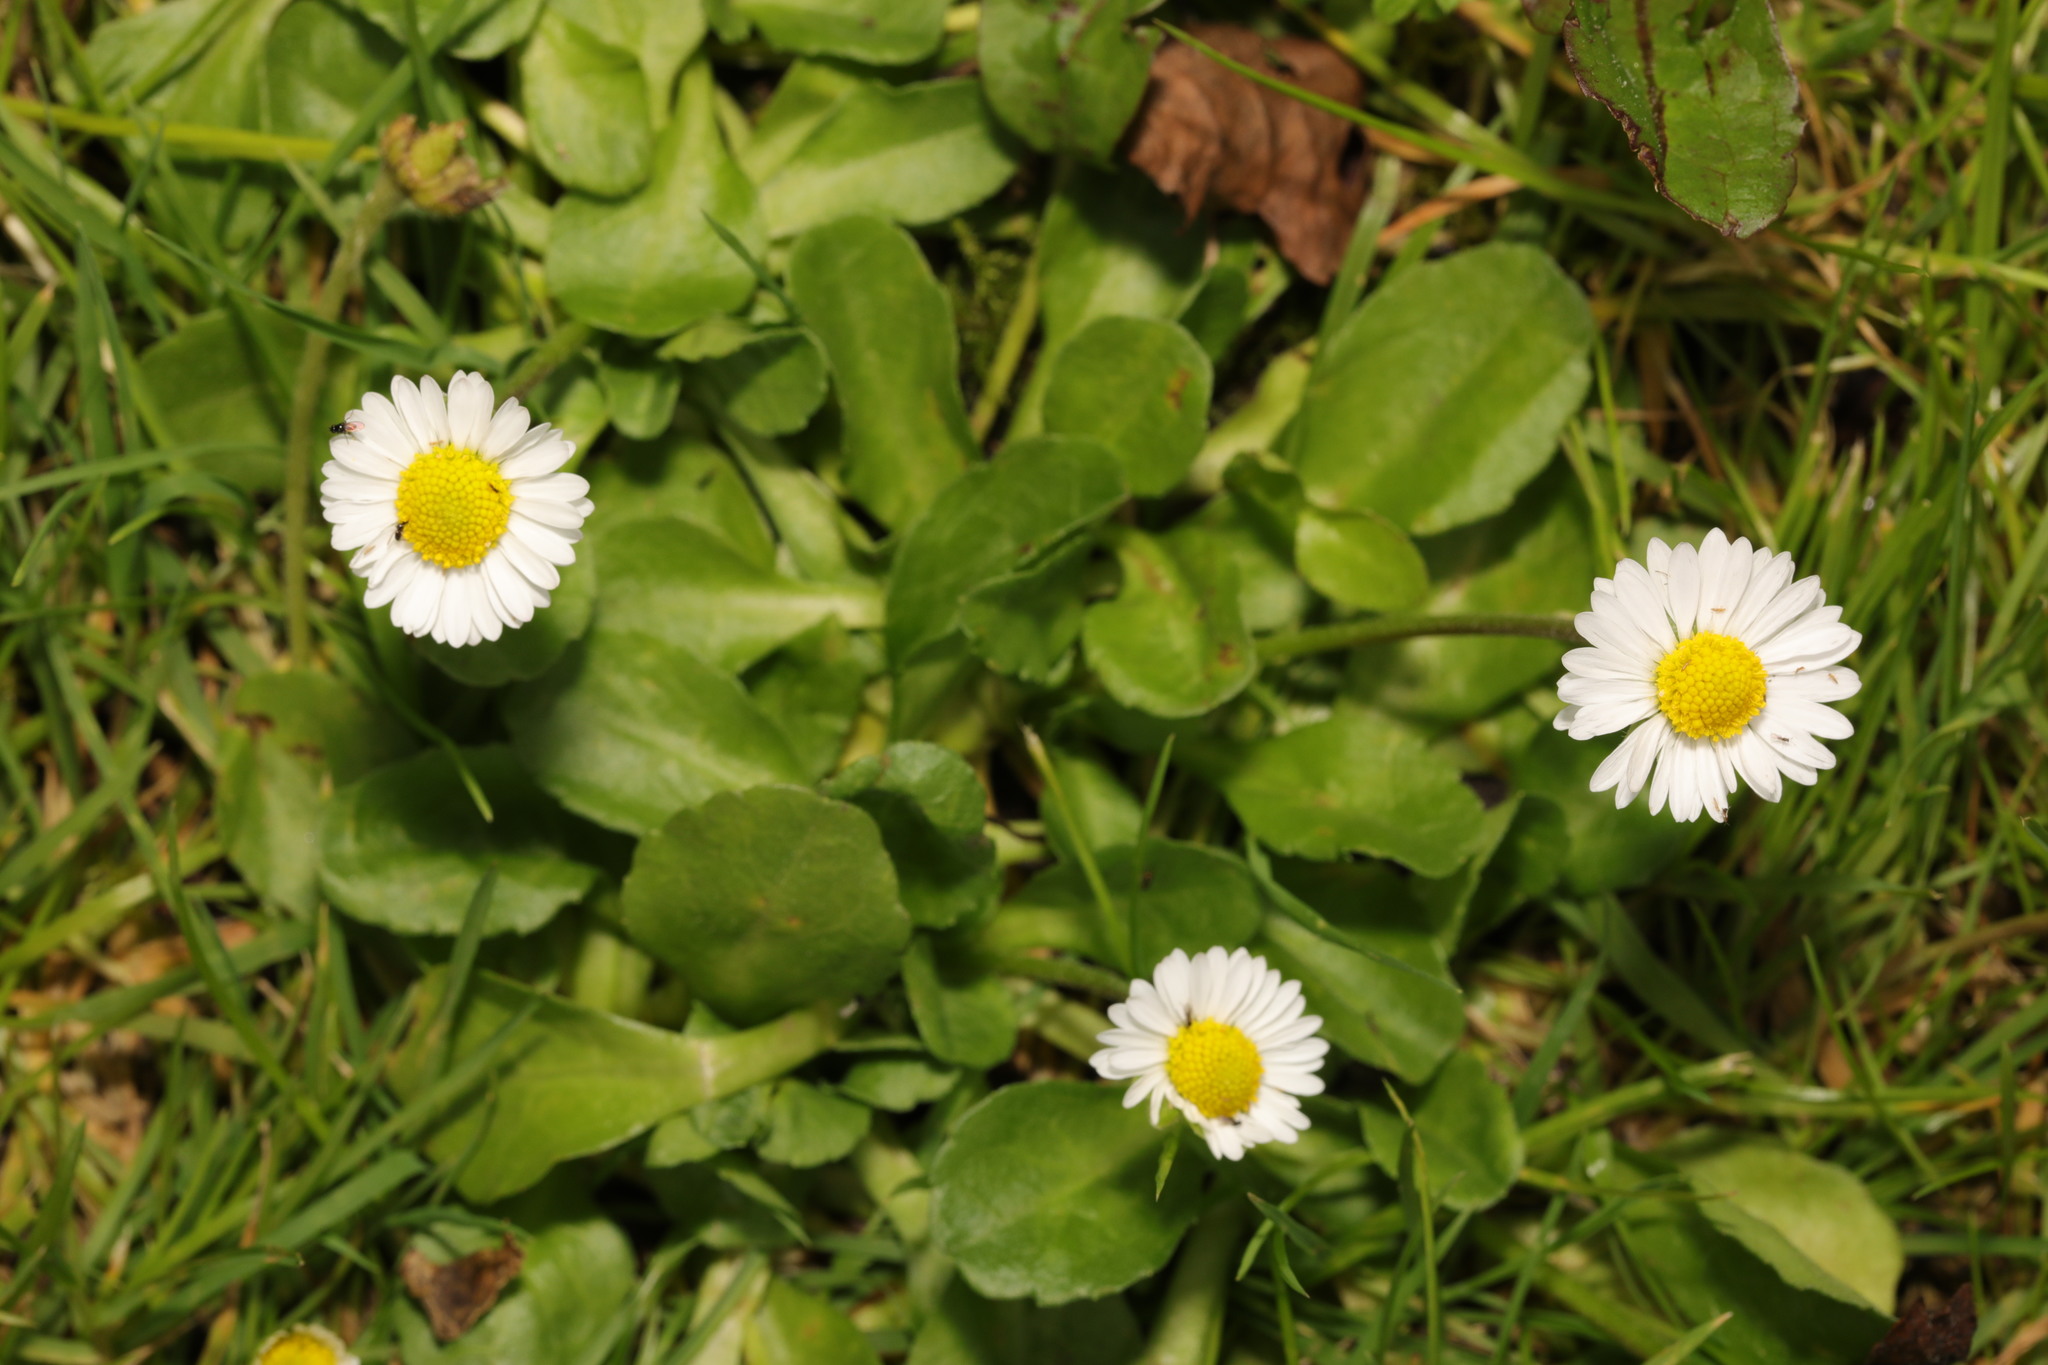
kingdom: Plantae
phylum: Tracheophyta
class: Magnoliopsida
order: Asterales
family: Asteraceae
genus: Bellis
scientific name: Bellis perennis
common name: Lawndaisy
